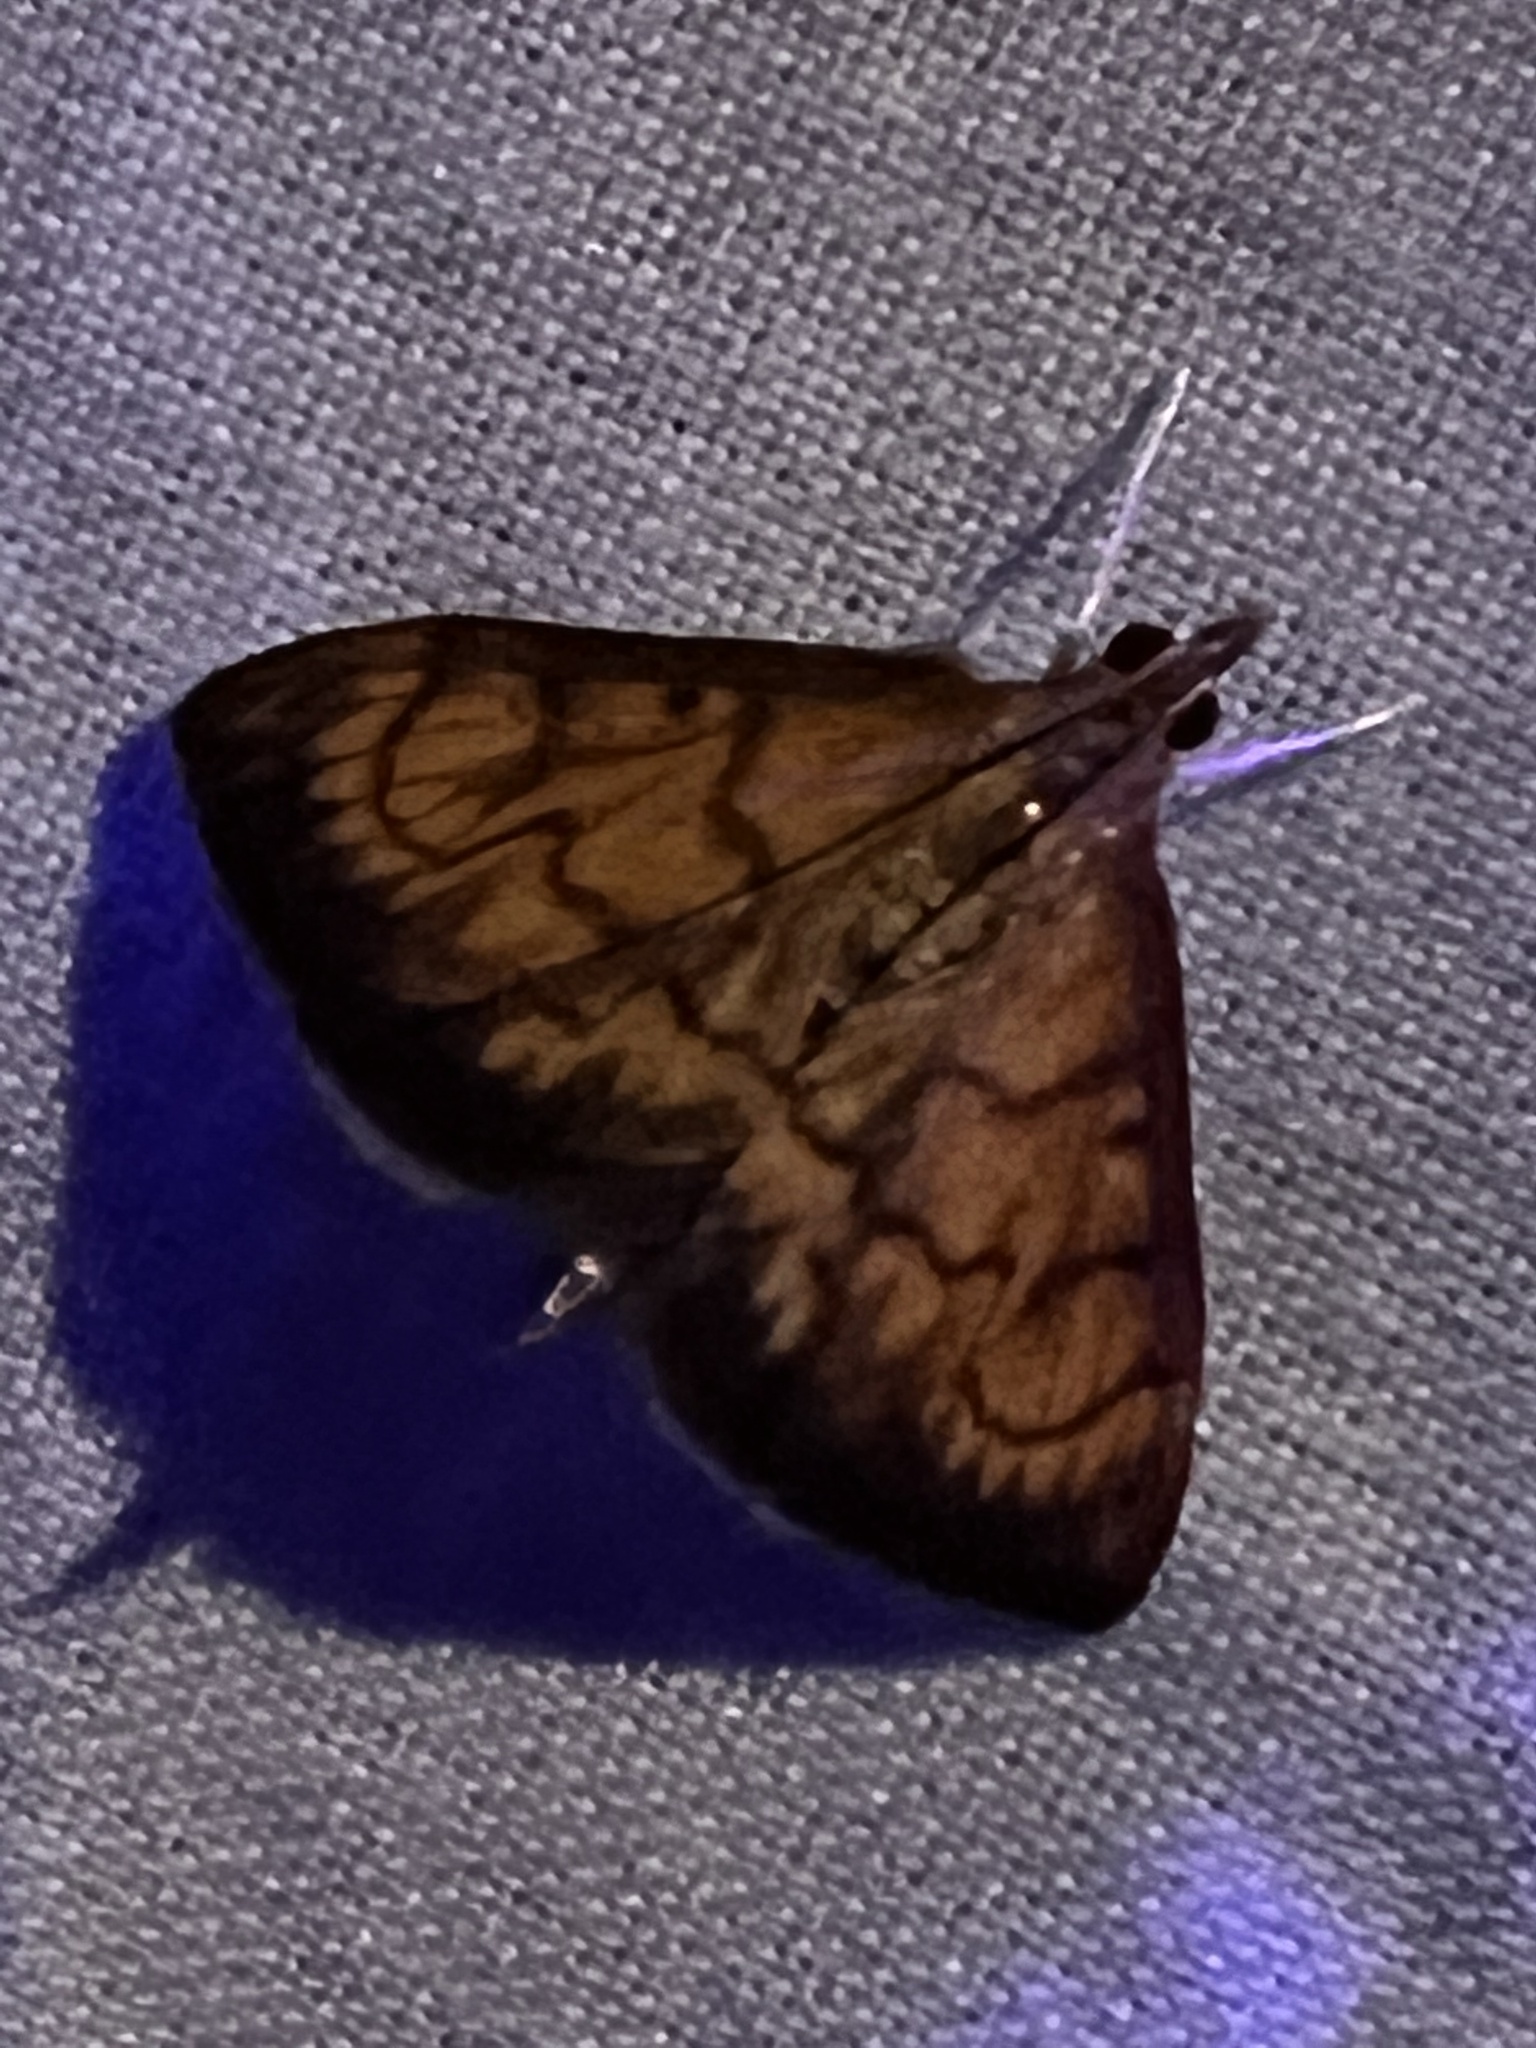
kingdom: Animalia
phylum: Arthropoda
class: Insecta
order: Lepidoptera
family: Crambidae
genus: Ecpyrrhorrhoe
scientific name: Ecpyrrhorrhoe rubiginalis
